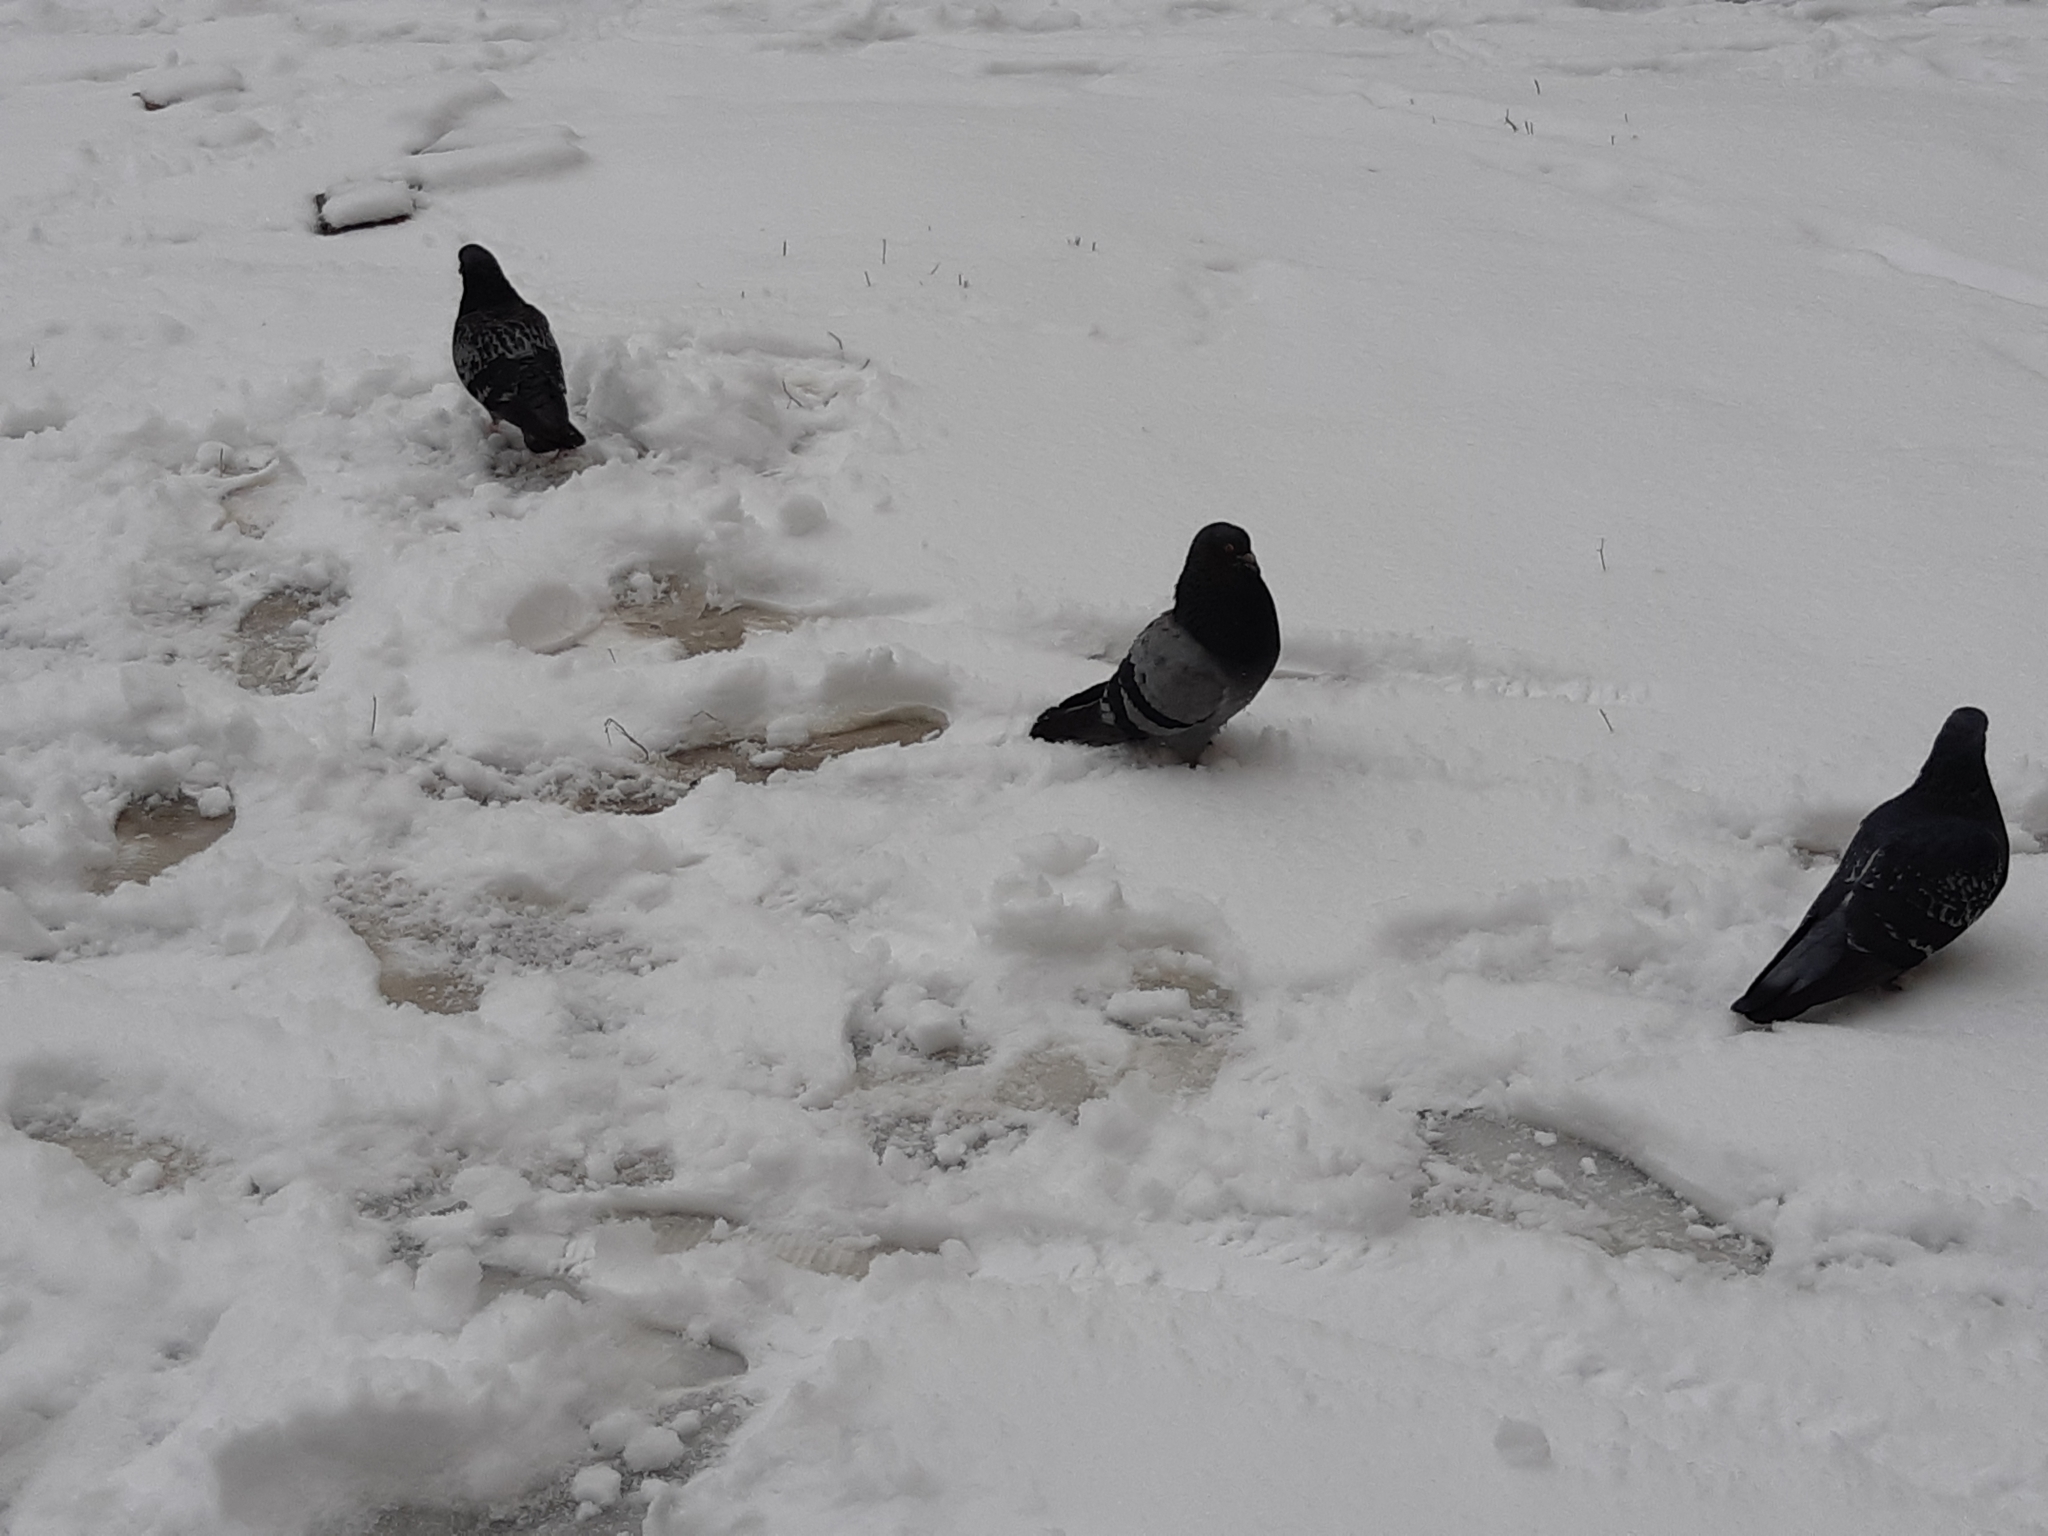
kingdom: Animalia
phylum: Chordata
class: Aves
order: Columbiformes
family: Columbidae
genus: Columba
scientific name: Columba livia
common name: Rock pigeon
